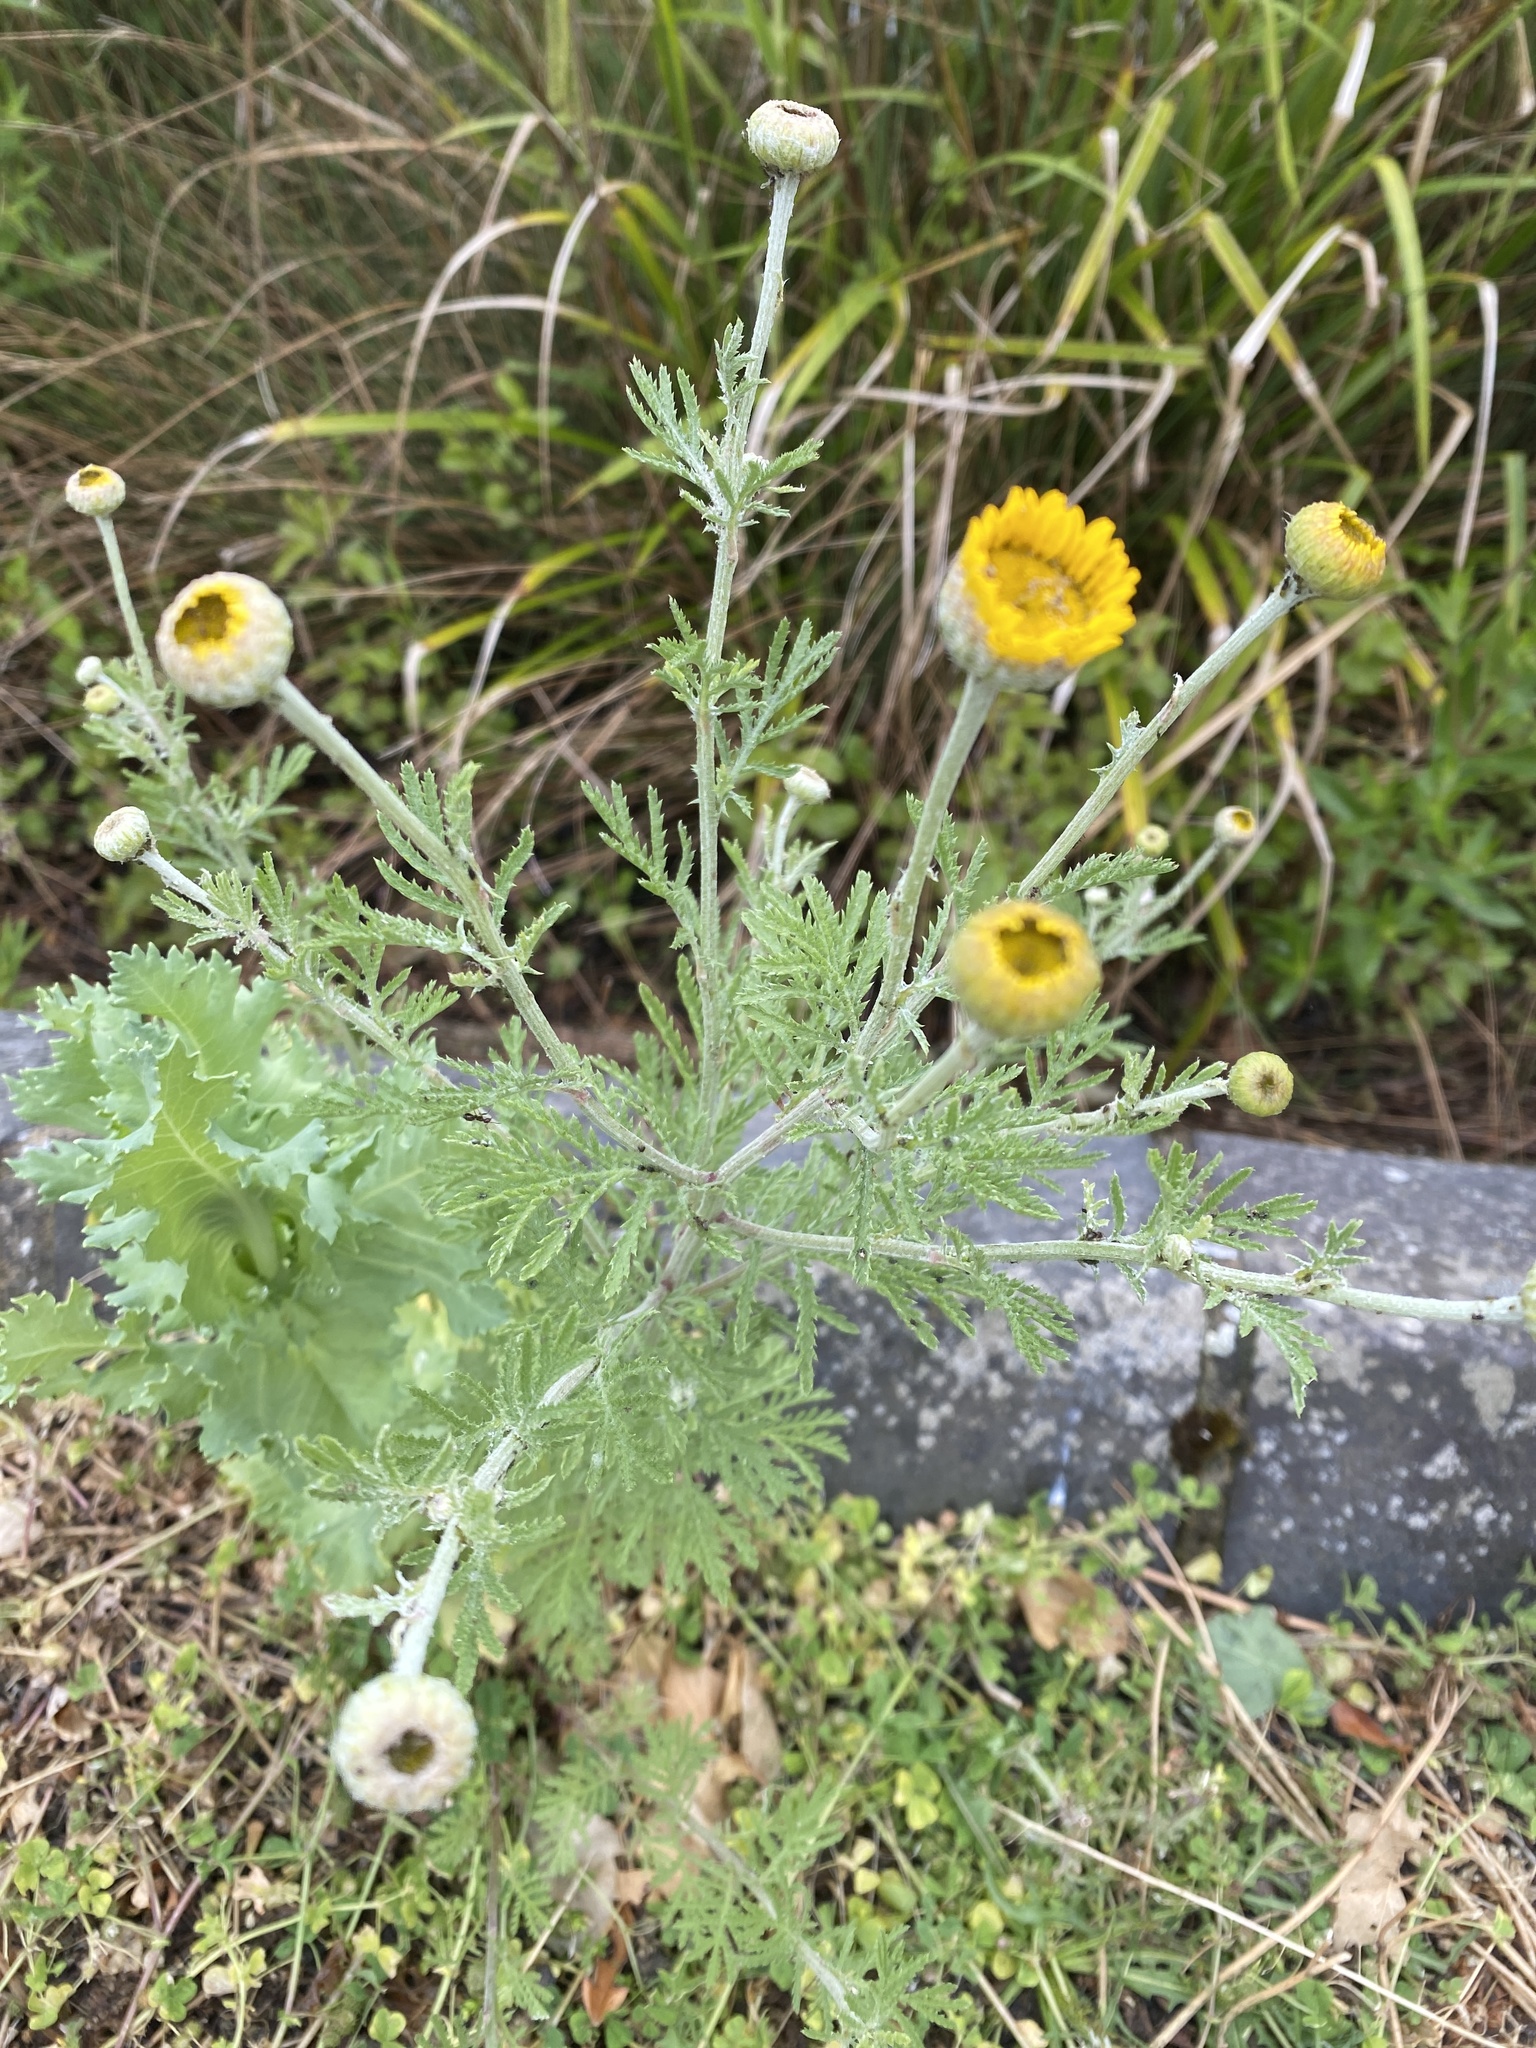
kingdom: Plantae
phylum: Tracheophyta
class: Magnoliopsida
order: Asterales
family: Asteraceae
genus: Cota
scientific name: Cota tinctoria
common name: Golden chamomile
